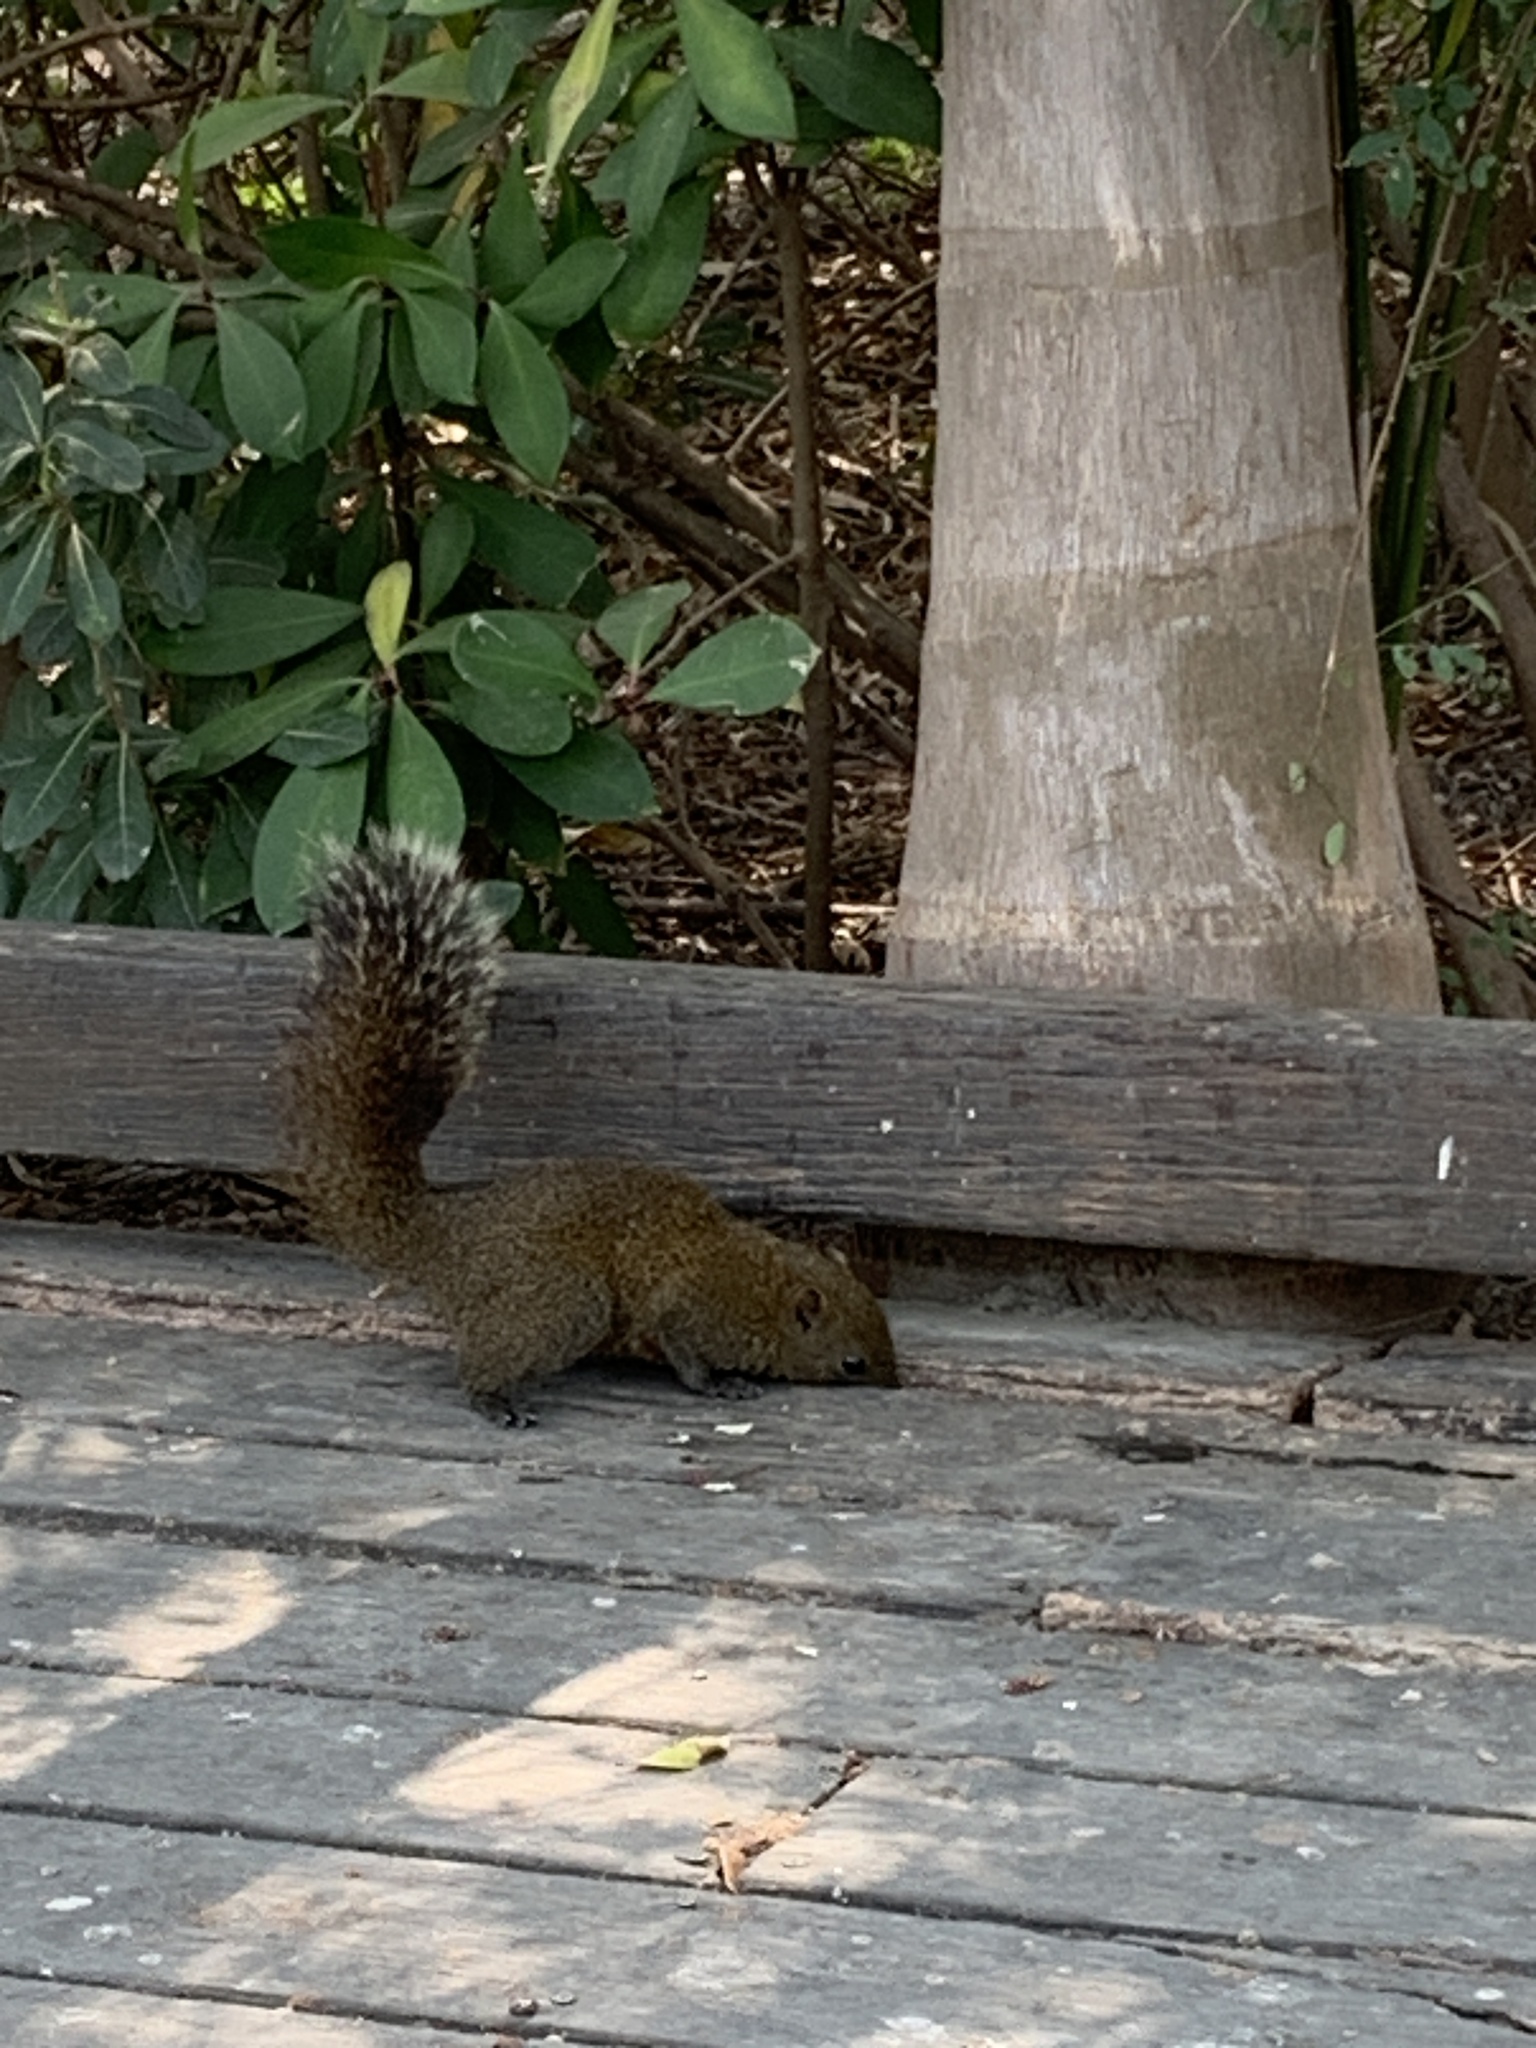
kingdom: Animalia
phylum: Chordata
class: Mammalia
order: Rodentia
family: Sciuridae
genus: Callosciurus
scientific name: Callosciurus erythraeus
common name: Pallas's squirrel
